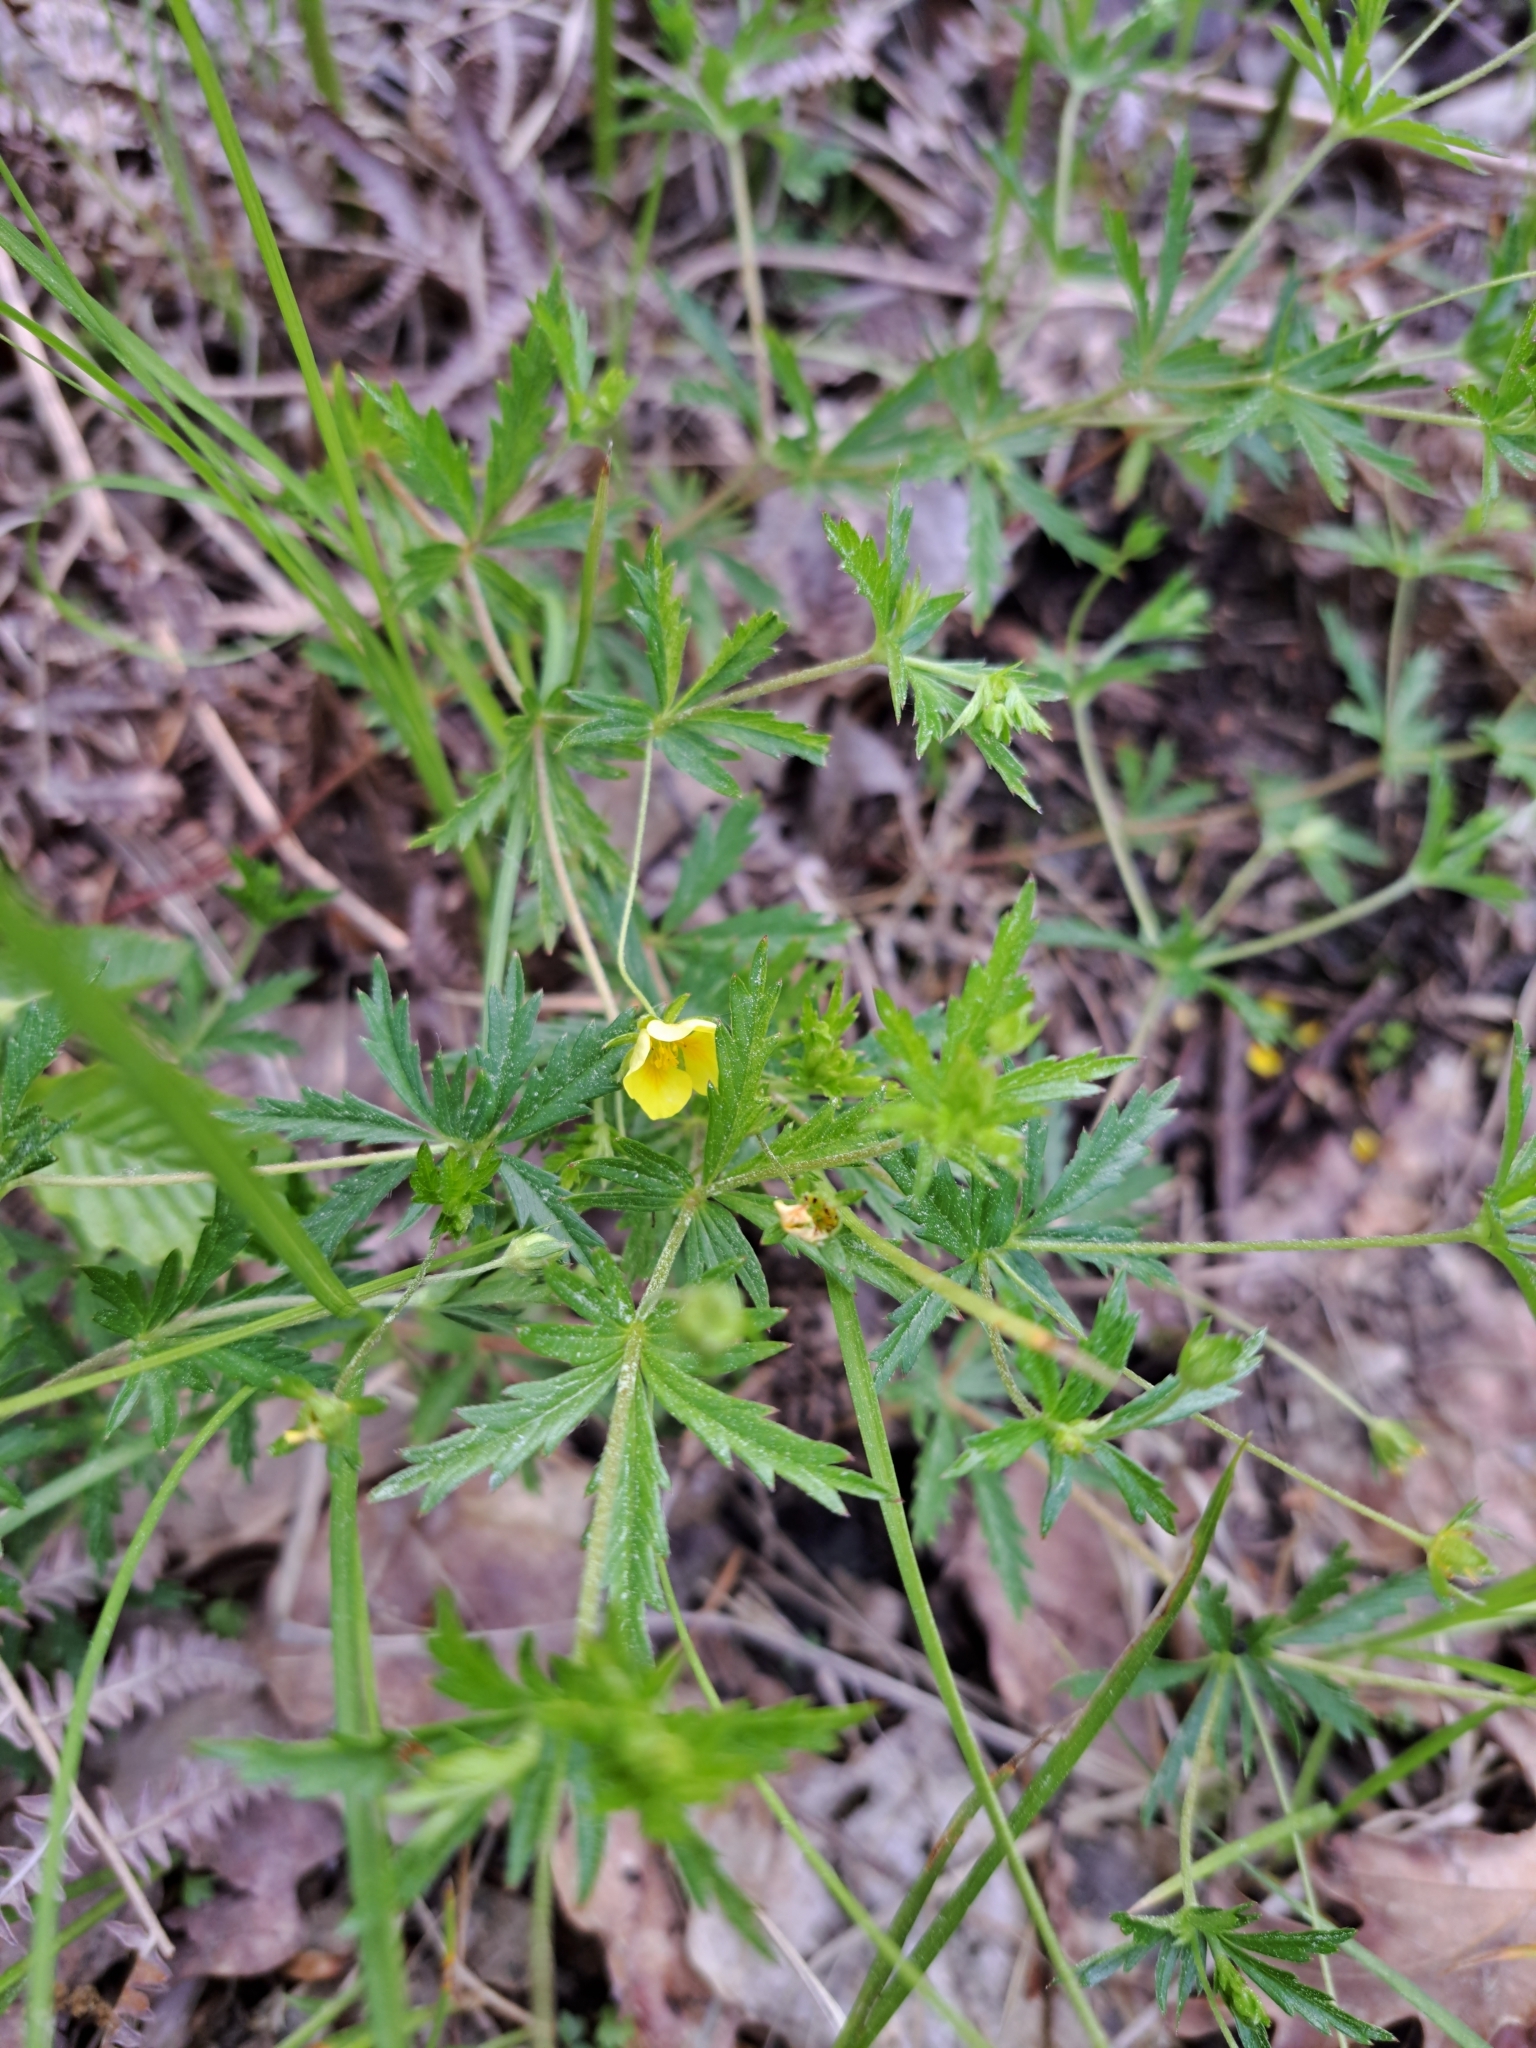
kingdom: Plantae
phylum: Tracheophyta
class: Magnoliopsida
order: Rosales
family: Rosaceae
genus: Potentilla
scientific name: Potentilla erecta
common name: Tormentil
